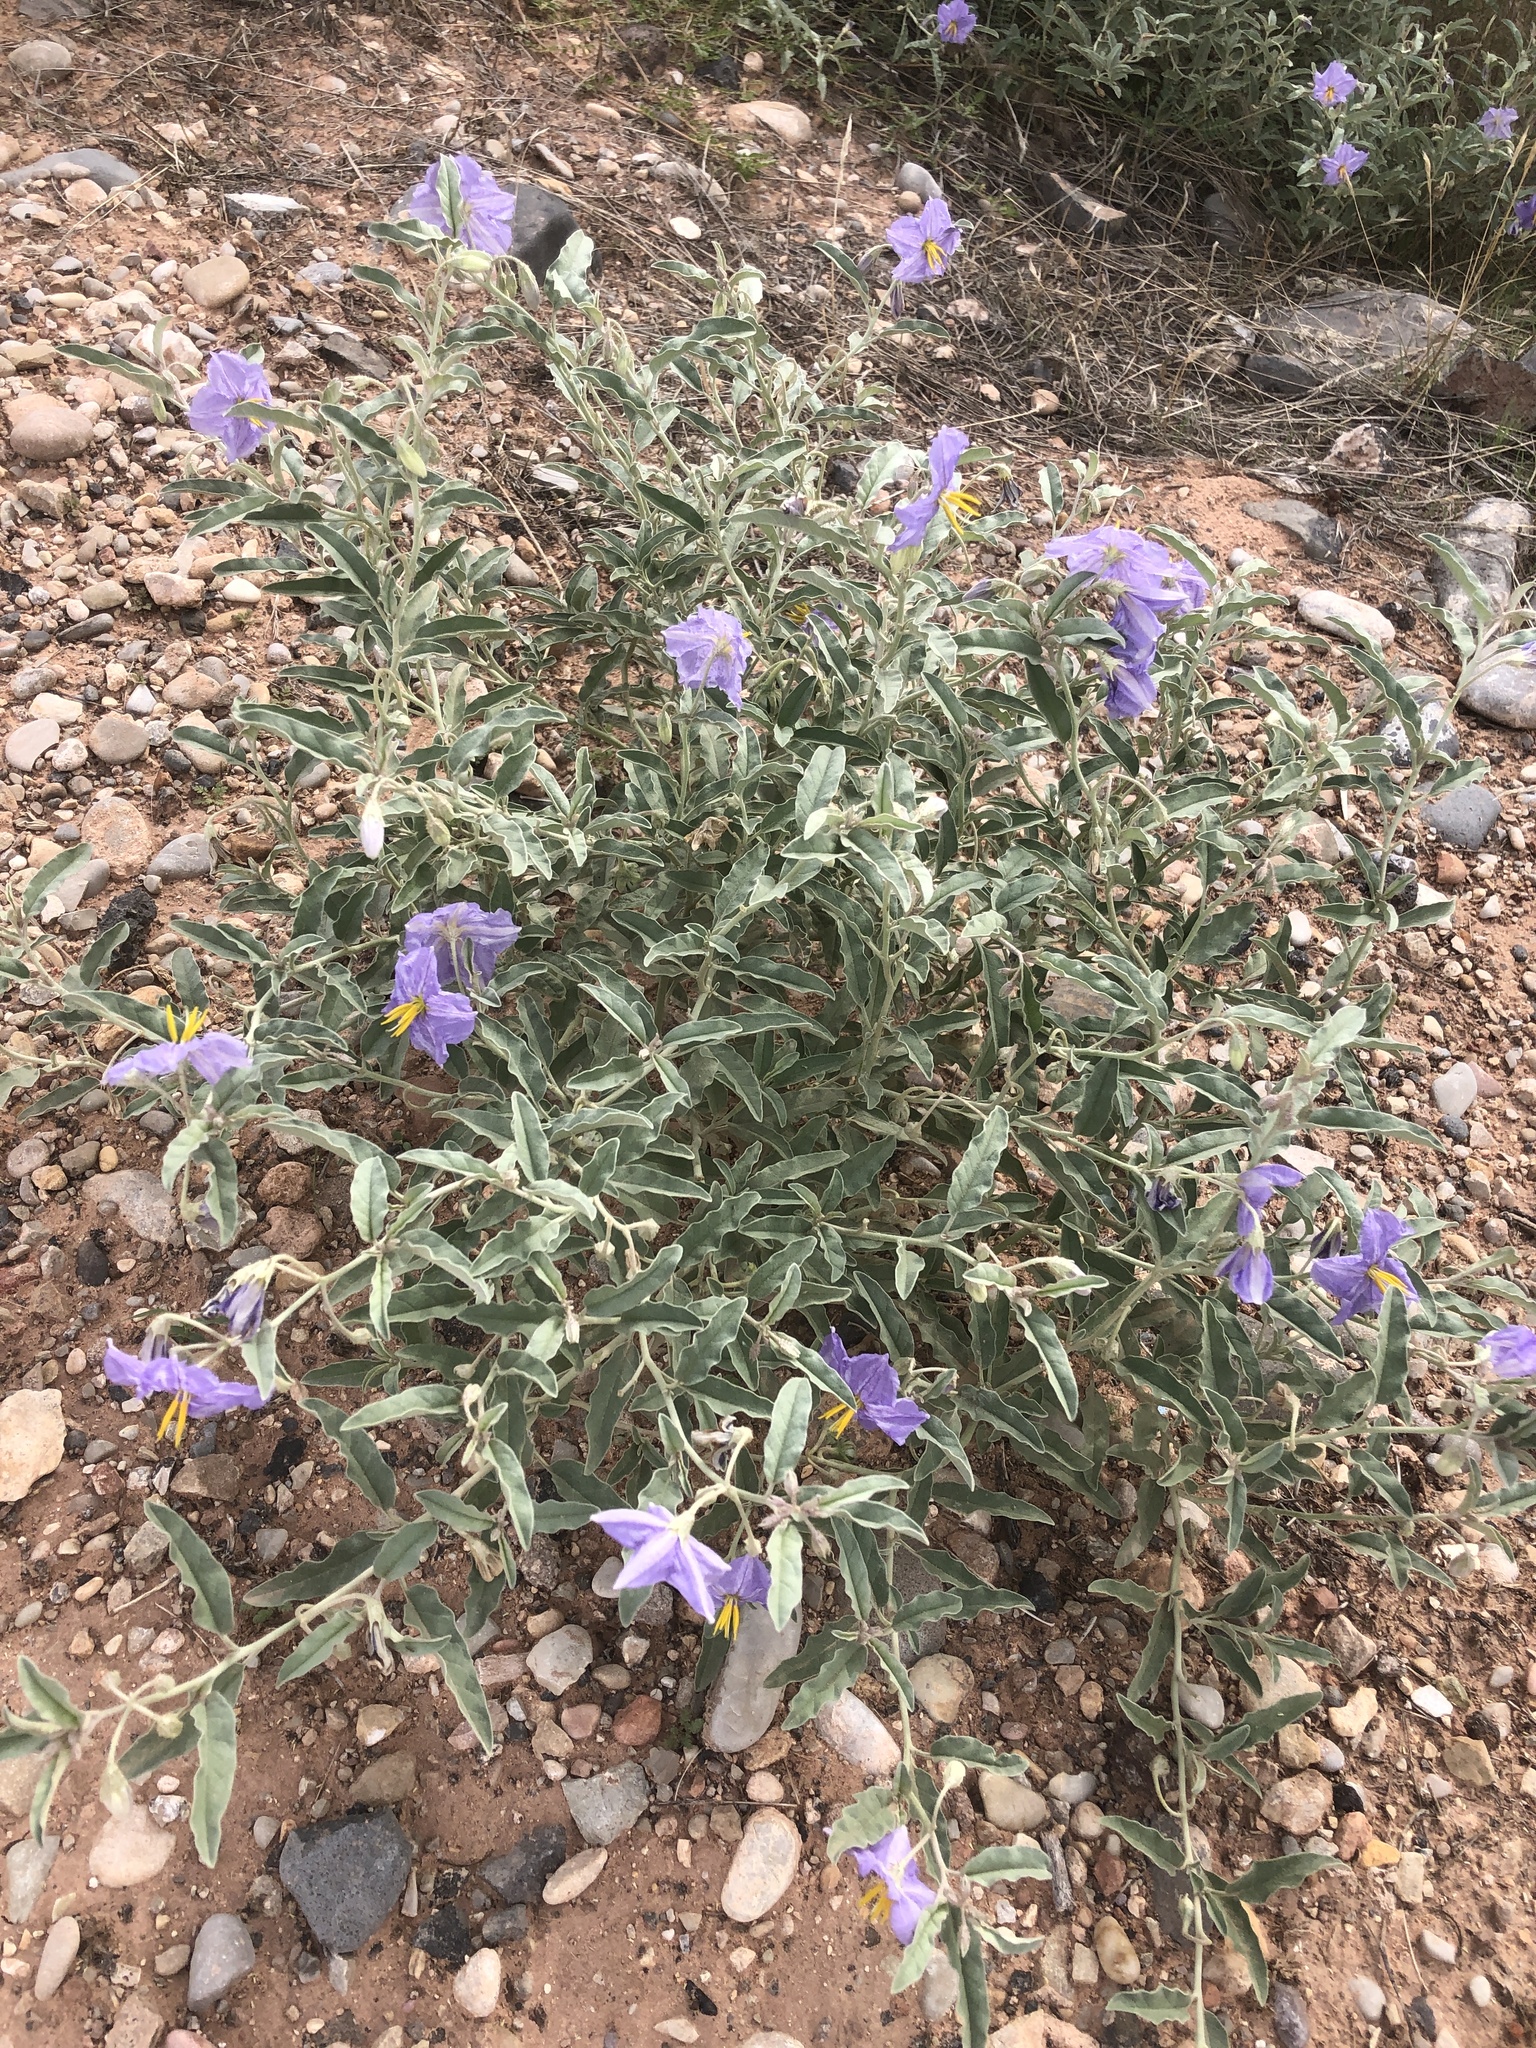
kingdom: Plantae
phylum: Tracheophyta
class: Magnoliopsida
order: Solanales
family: Solanaceae
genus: Solanum
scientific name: Solanum elaeagnifolium
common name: Silverleaf nightshade
